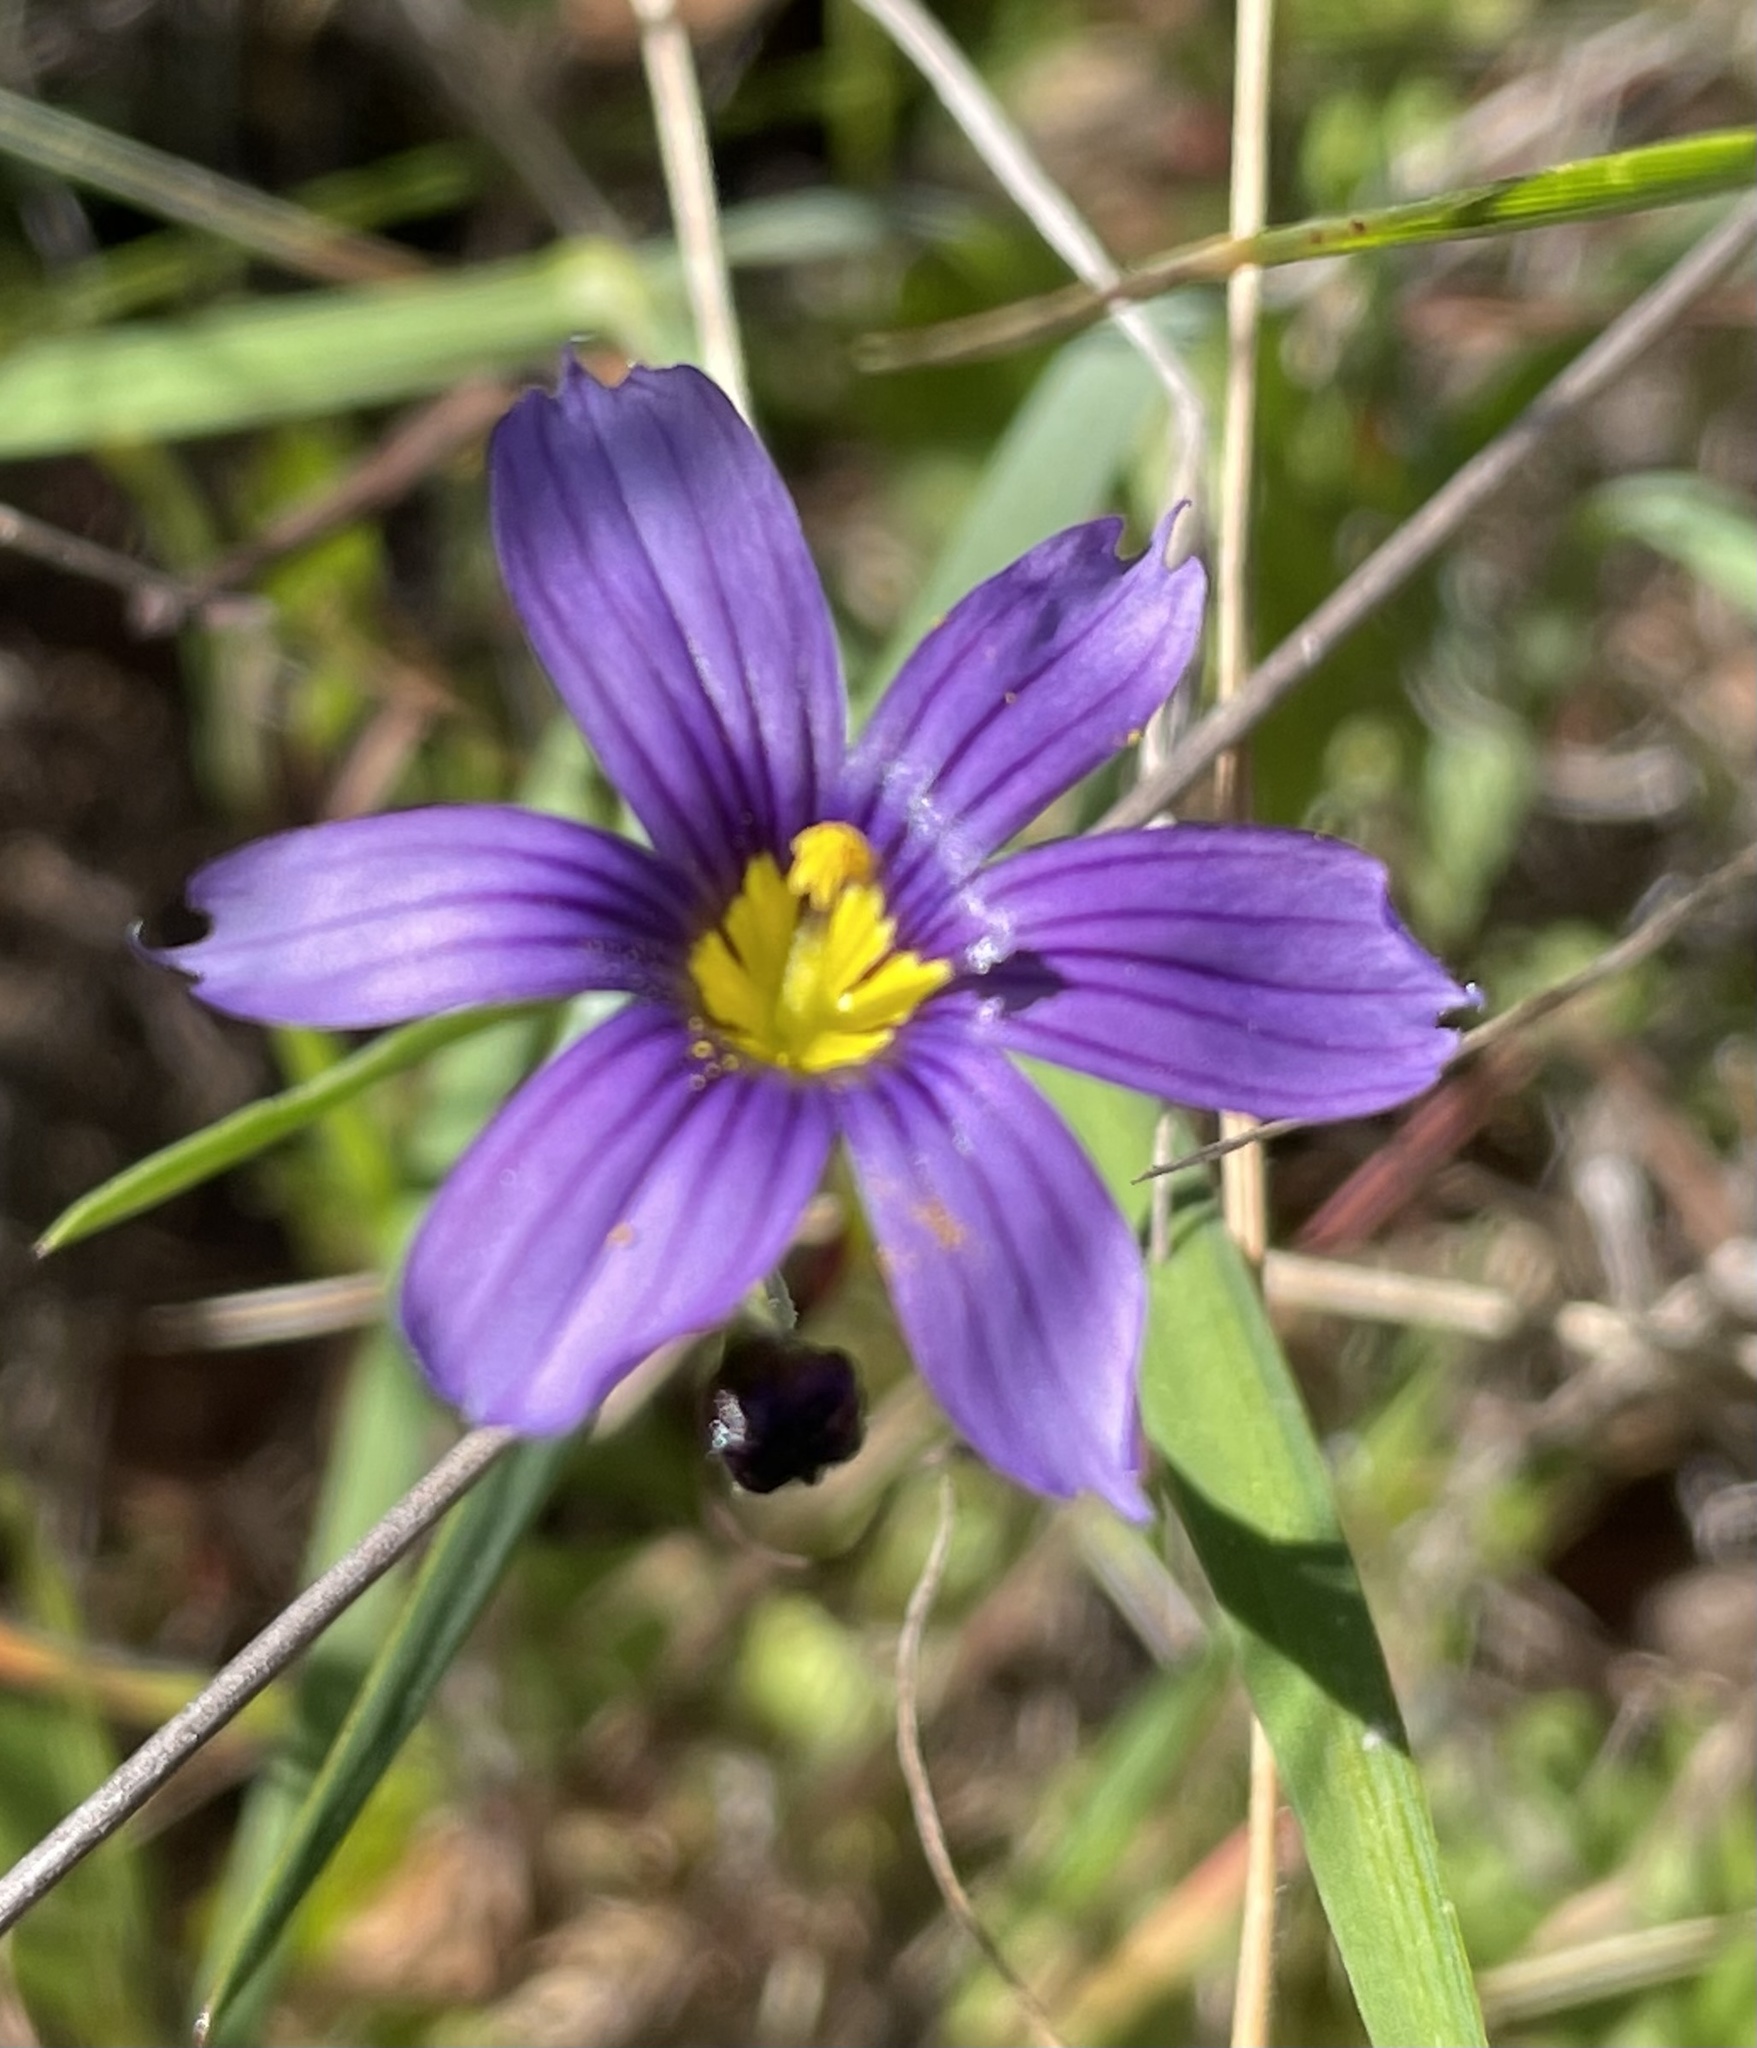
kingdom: Plantae
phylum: Tracheophyta
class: Liliopsida
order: Asparagales
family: Iridaceae
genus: Sisyrinchium
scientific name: Sisyrinchium bellum
